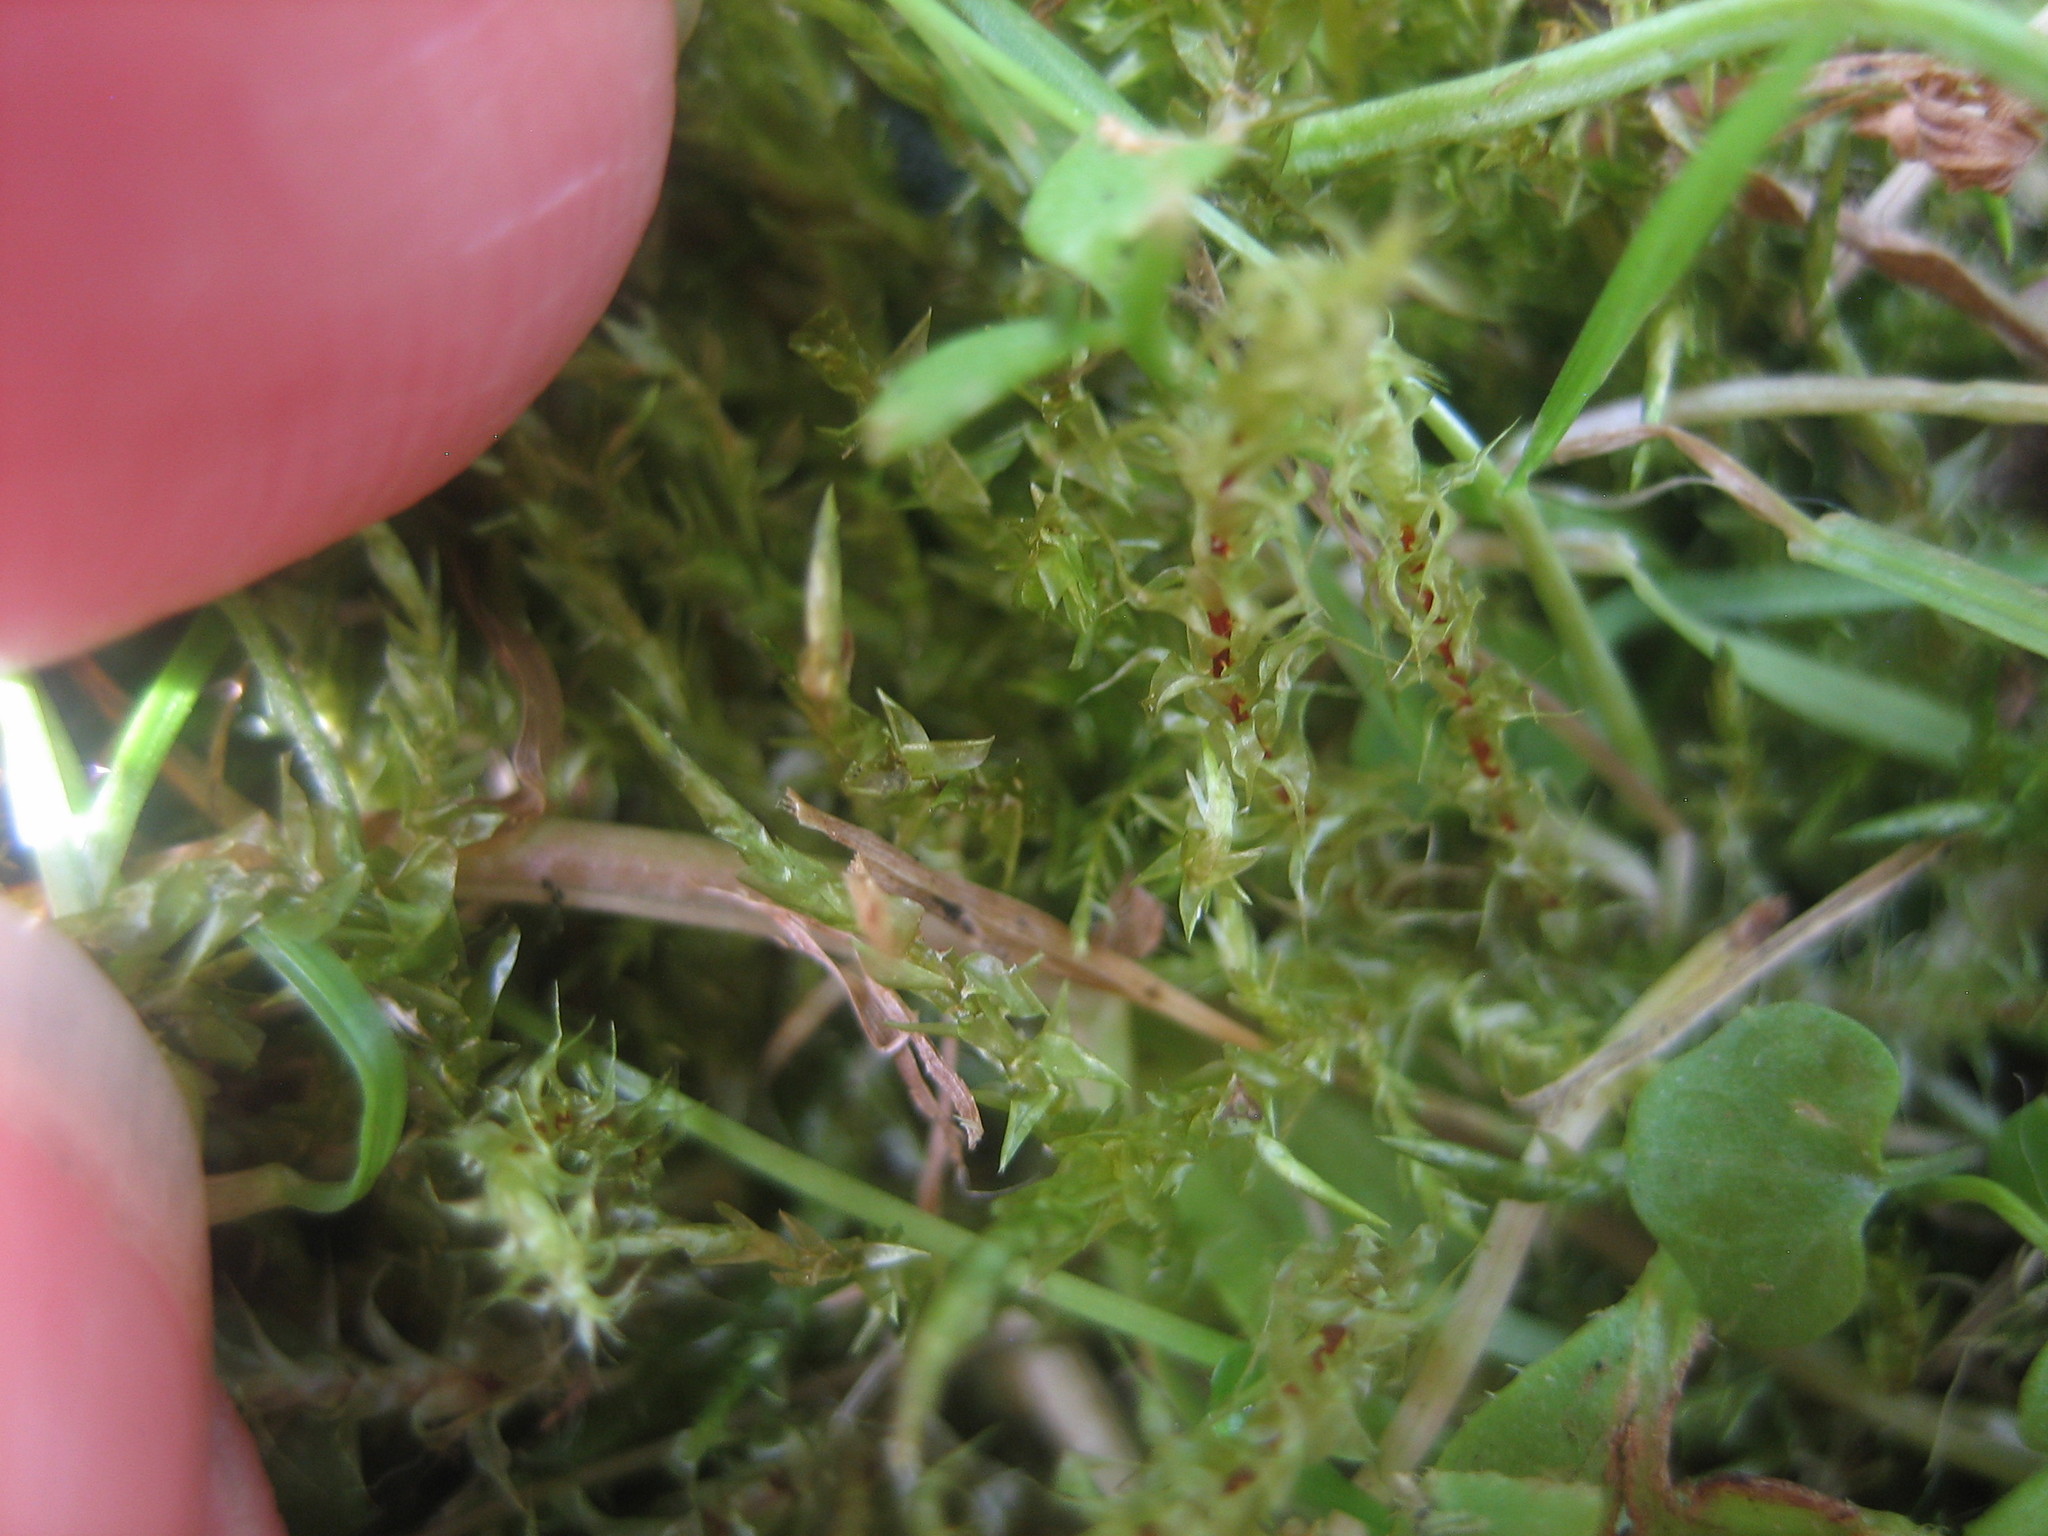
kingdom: Plantae
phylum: Bryophyta
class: Bryopsida
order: Hypnales
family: Hylocomiaceae
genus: Rhytidiadelphus
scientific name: Rhytidiadelphus squarrosus
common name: Springy turf-moss
